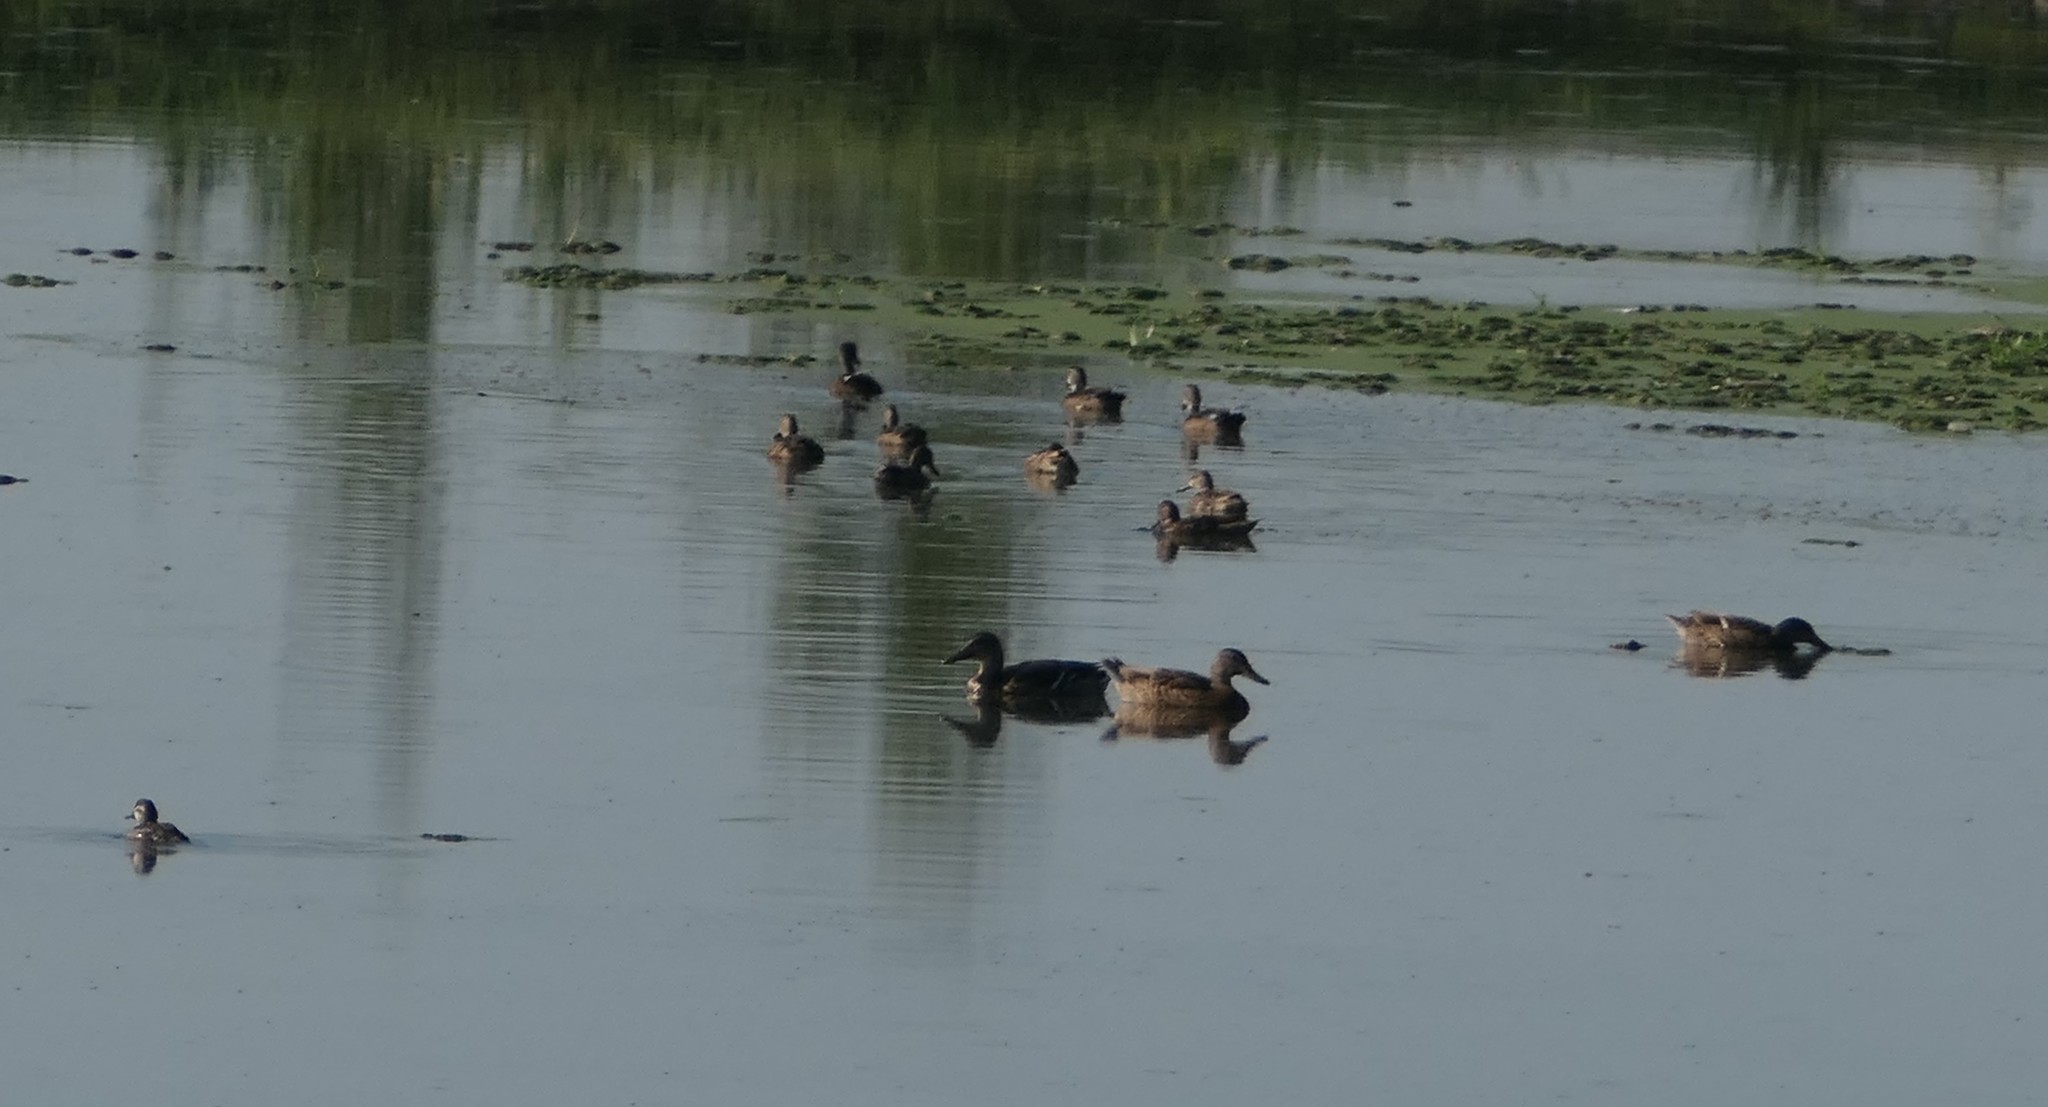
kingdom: Animalia
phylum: Chordata
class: Aves
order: Anseriformes
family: Anatidae
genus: Anas
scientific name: Anas platyrhynchos
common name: Mallard
